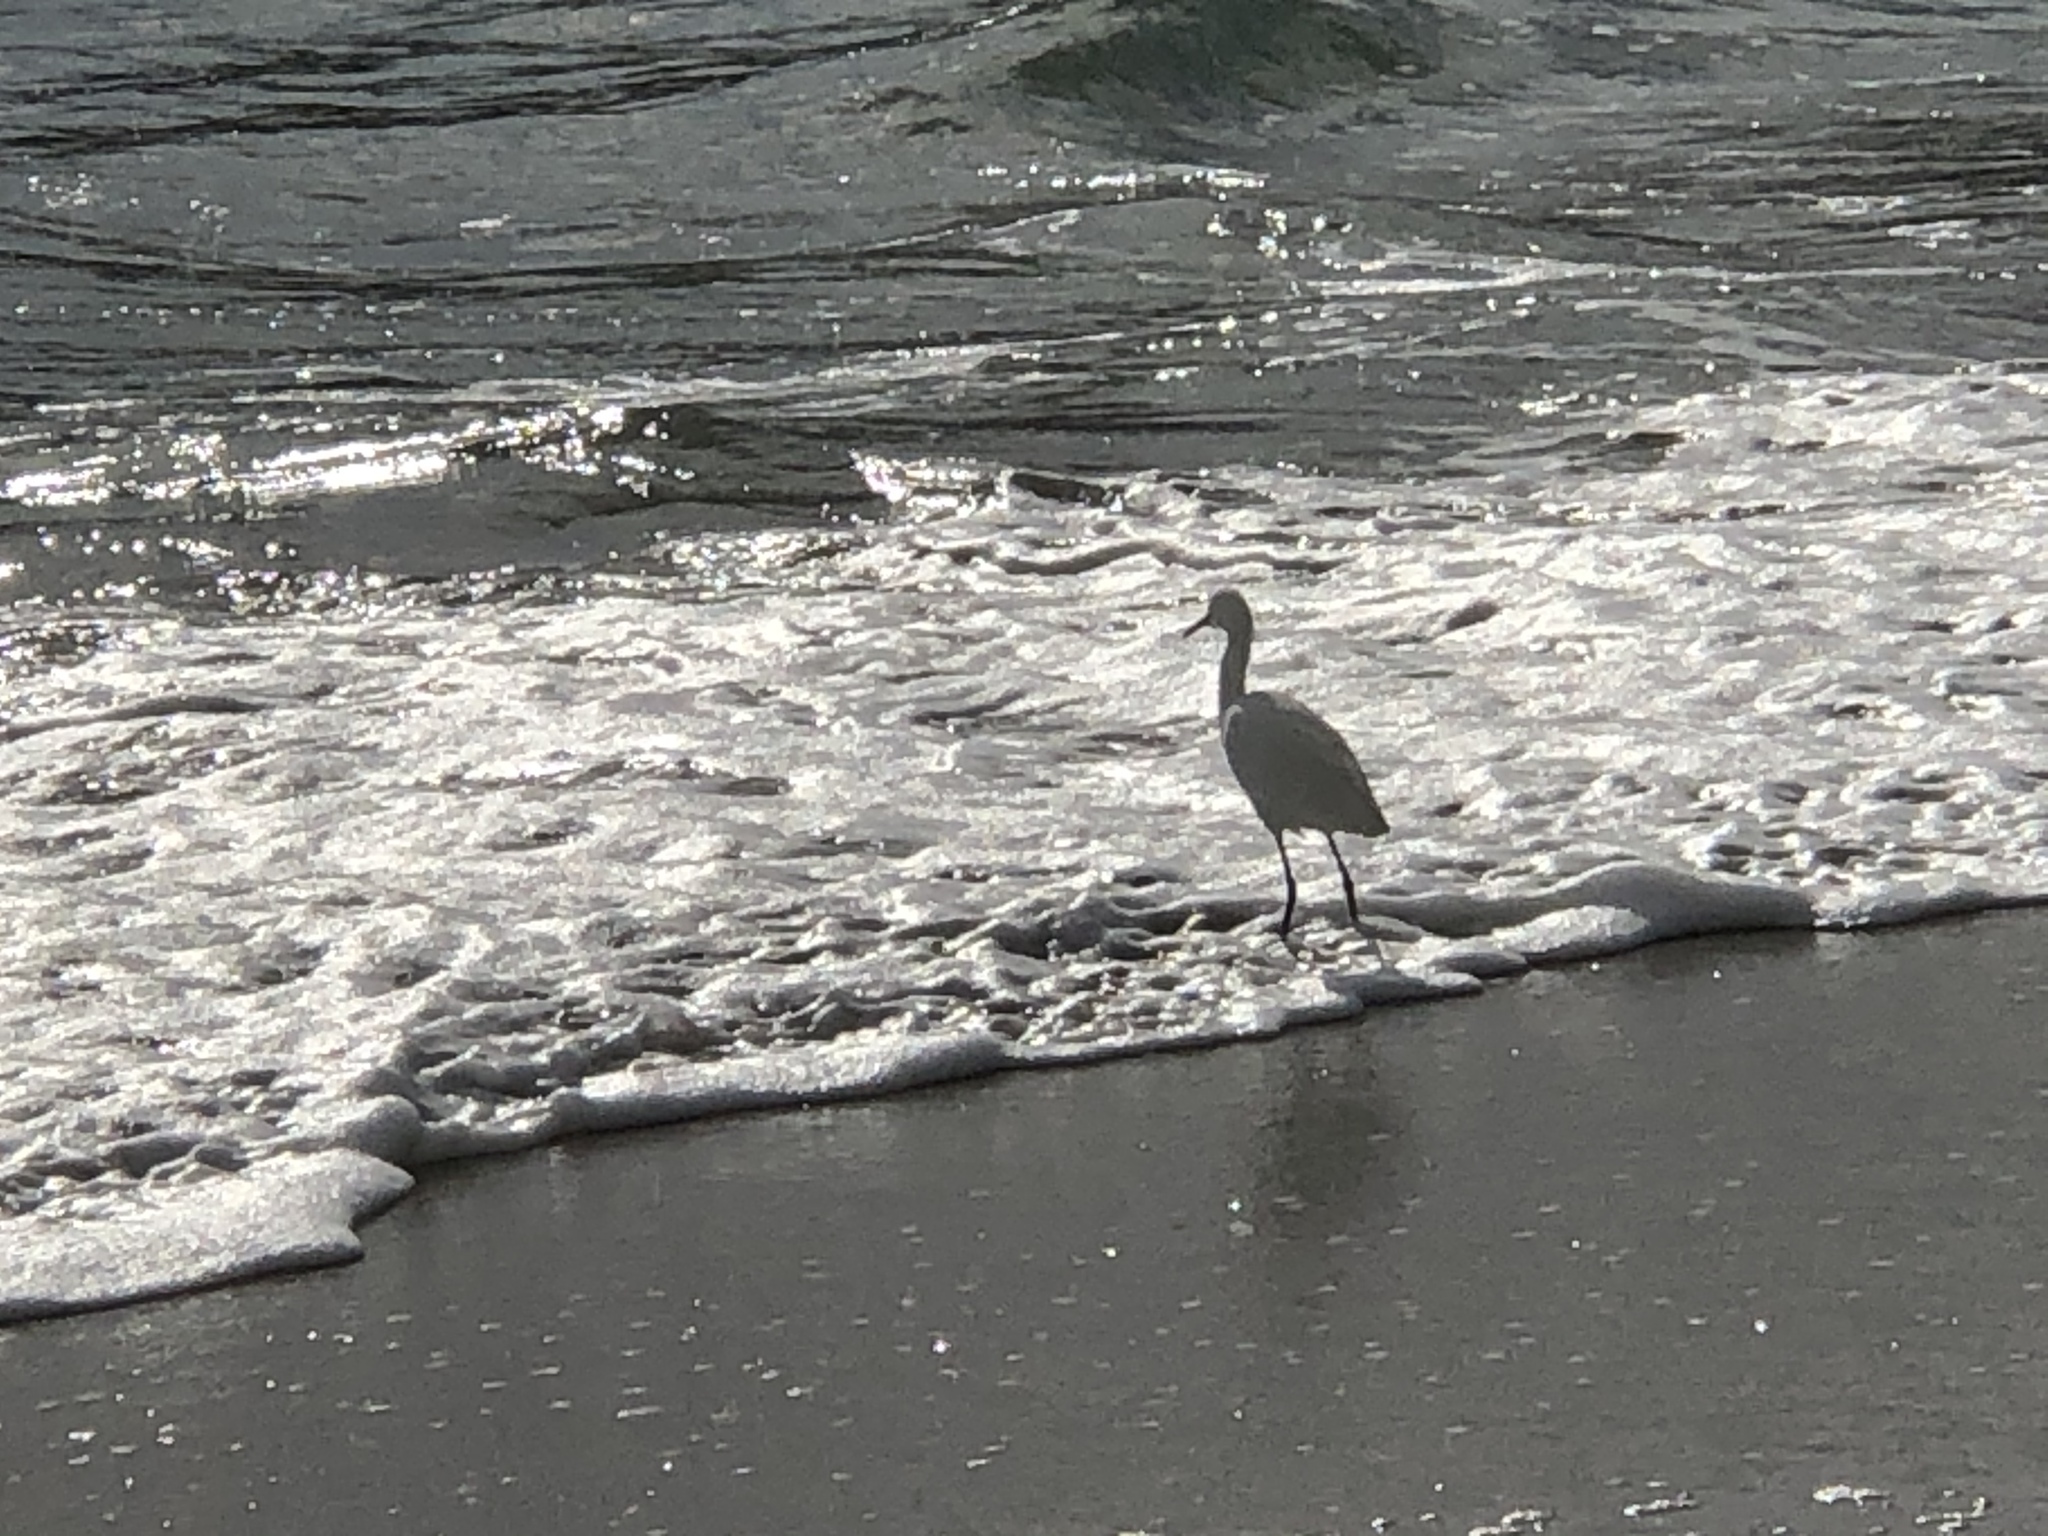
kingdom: Animalia
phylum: Chordata
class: Aves
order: Pelecaniformes
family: Ardeidae
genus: Egretta
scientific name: Egretta thula
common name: Snowy egret
